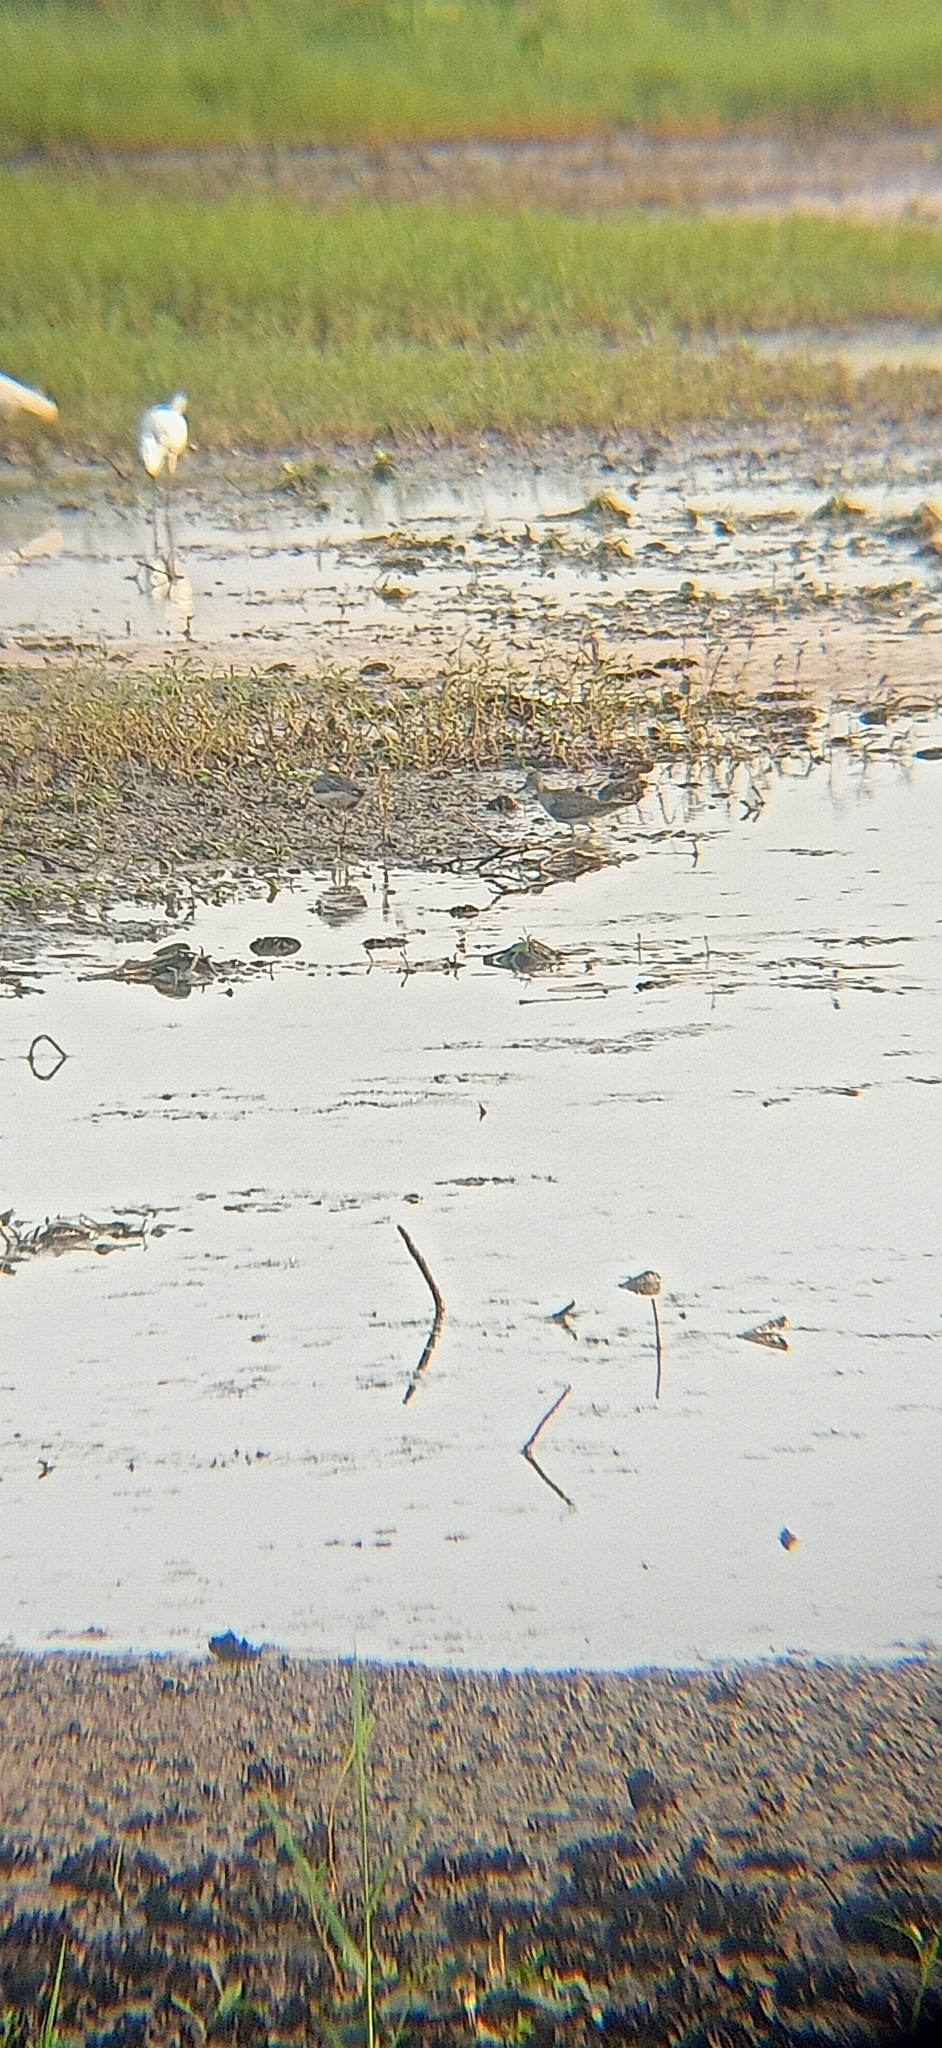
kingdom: Animalia
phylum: Chordata
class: Aves
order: Charadriiformes
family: Scolopacidae
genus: Tringa
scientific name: Tringa glareola
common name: Wood sandpiper
